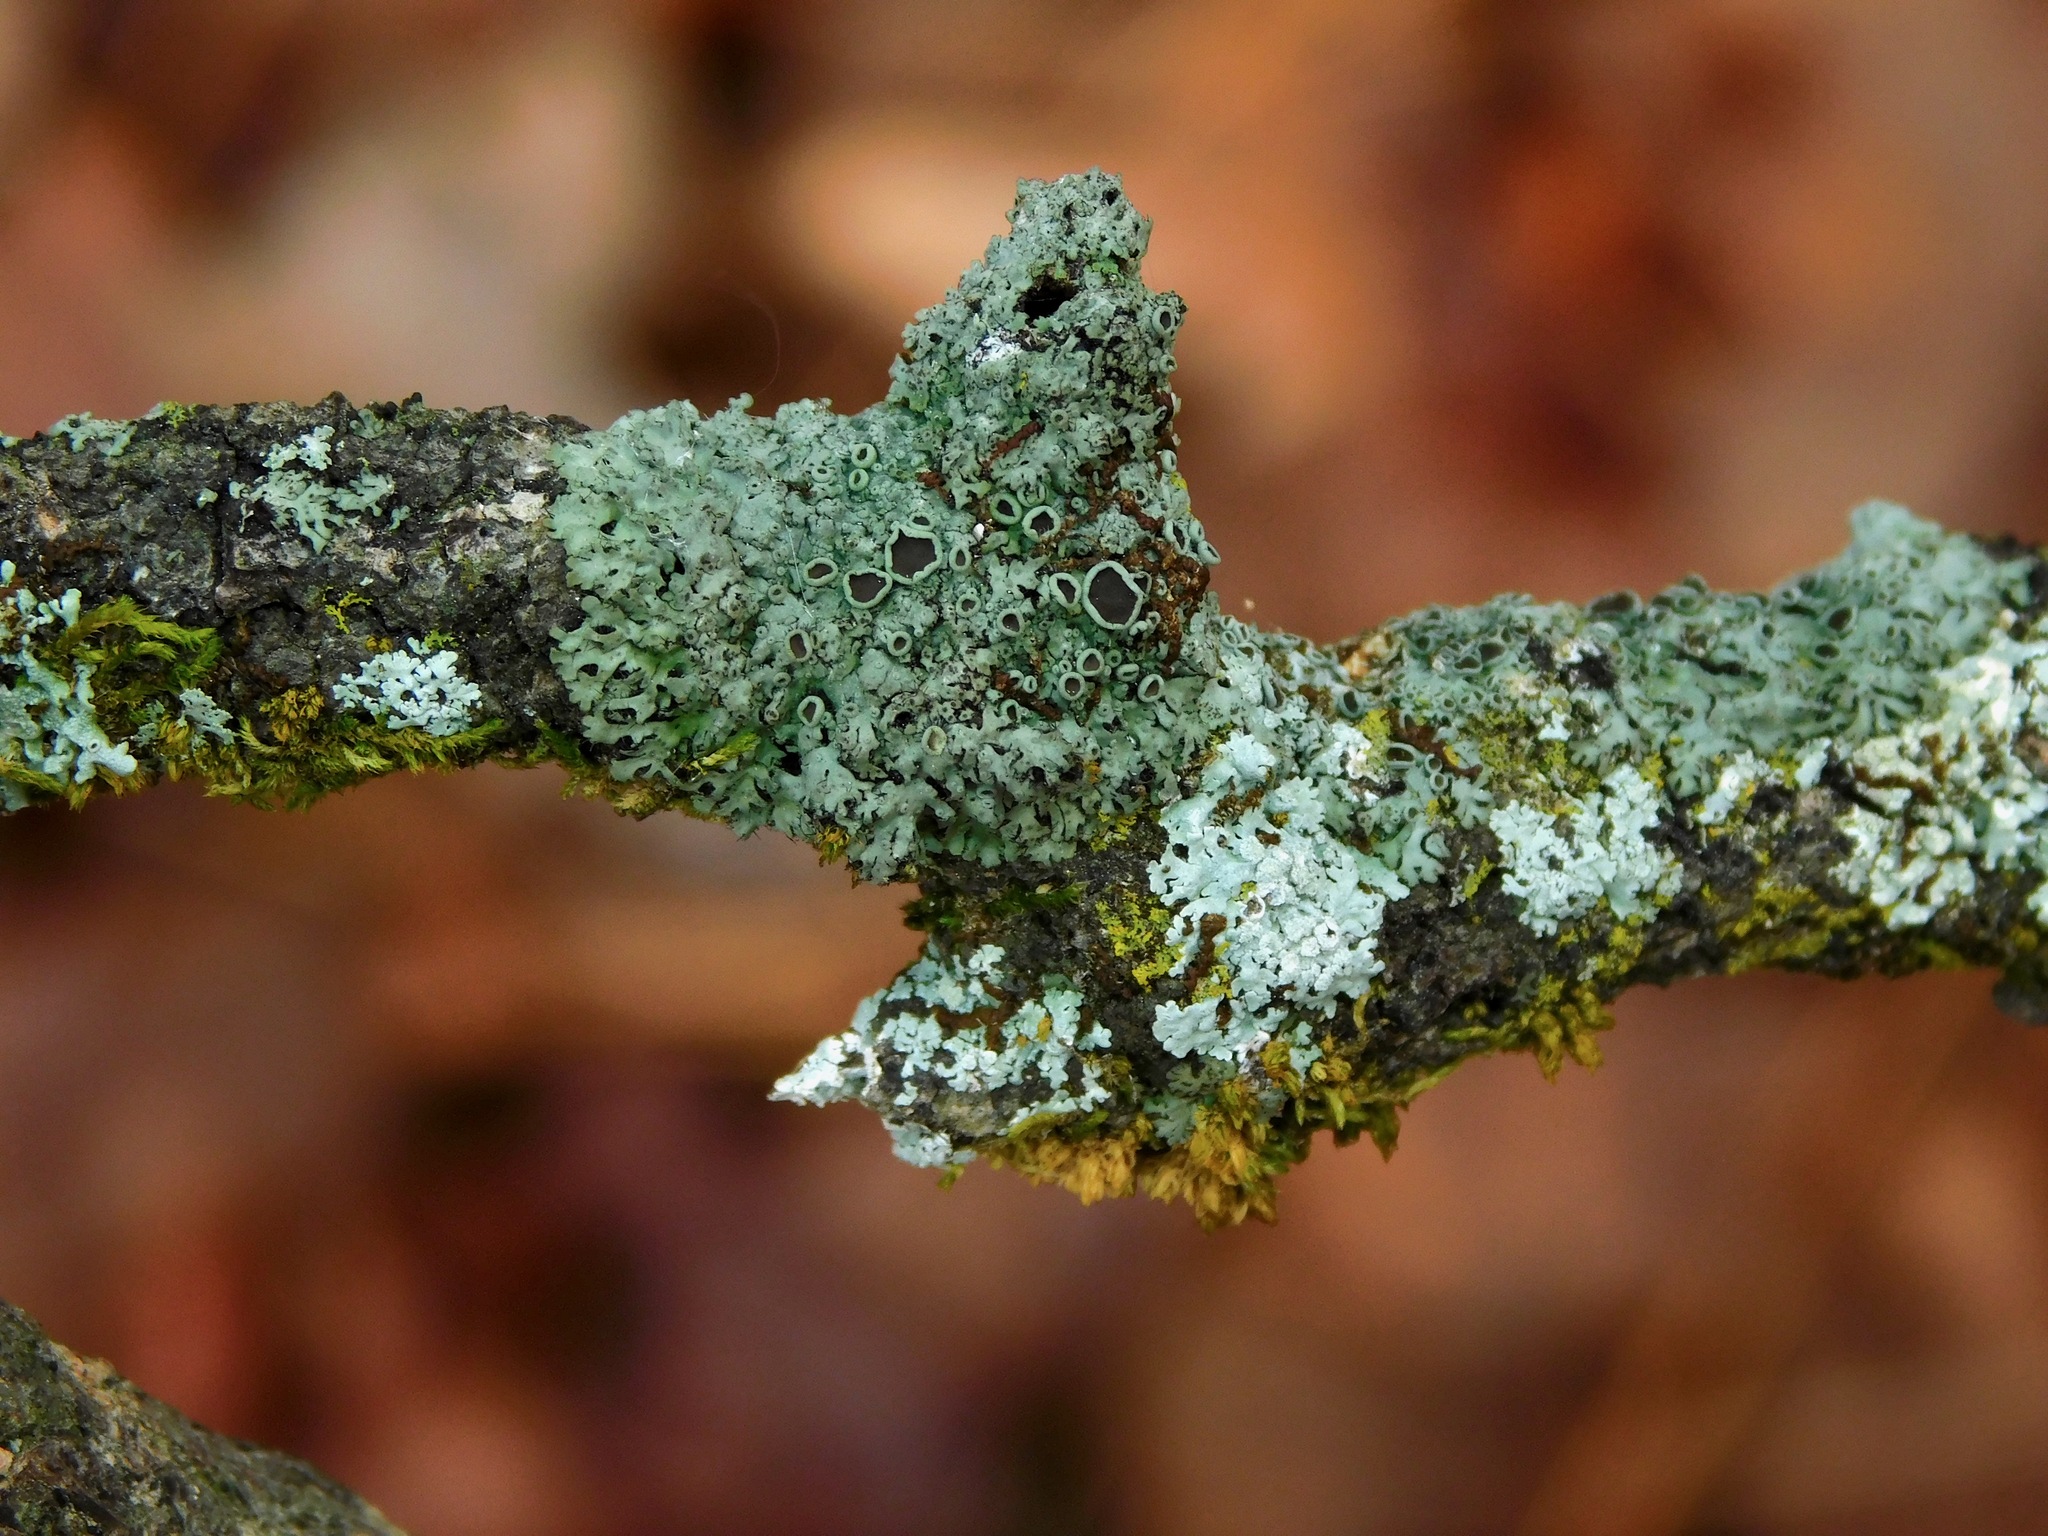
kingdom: Fungi
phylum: Ascomycota
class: Lecanoromycetes
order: Caliciales
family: Physciaceae
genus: Phaeophyscia
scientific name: Phaeophyscia ciliata
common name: Smooth shadow lichen
